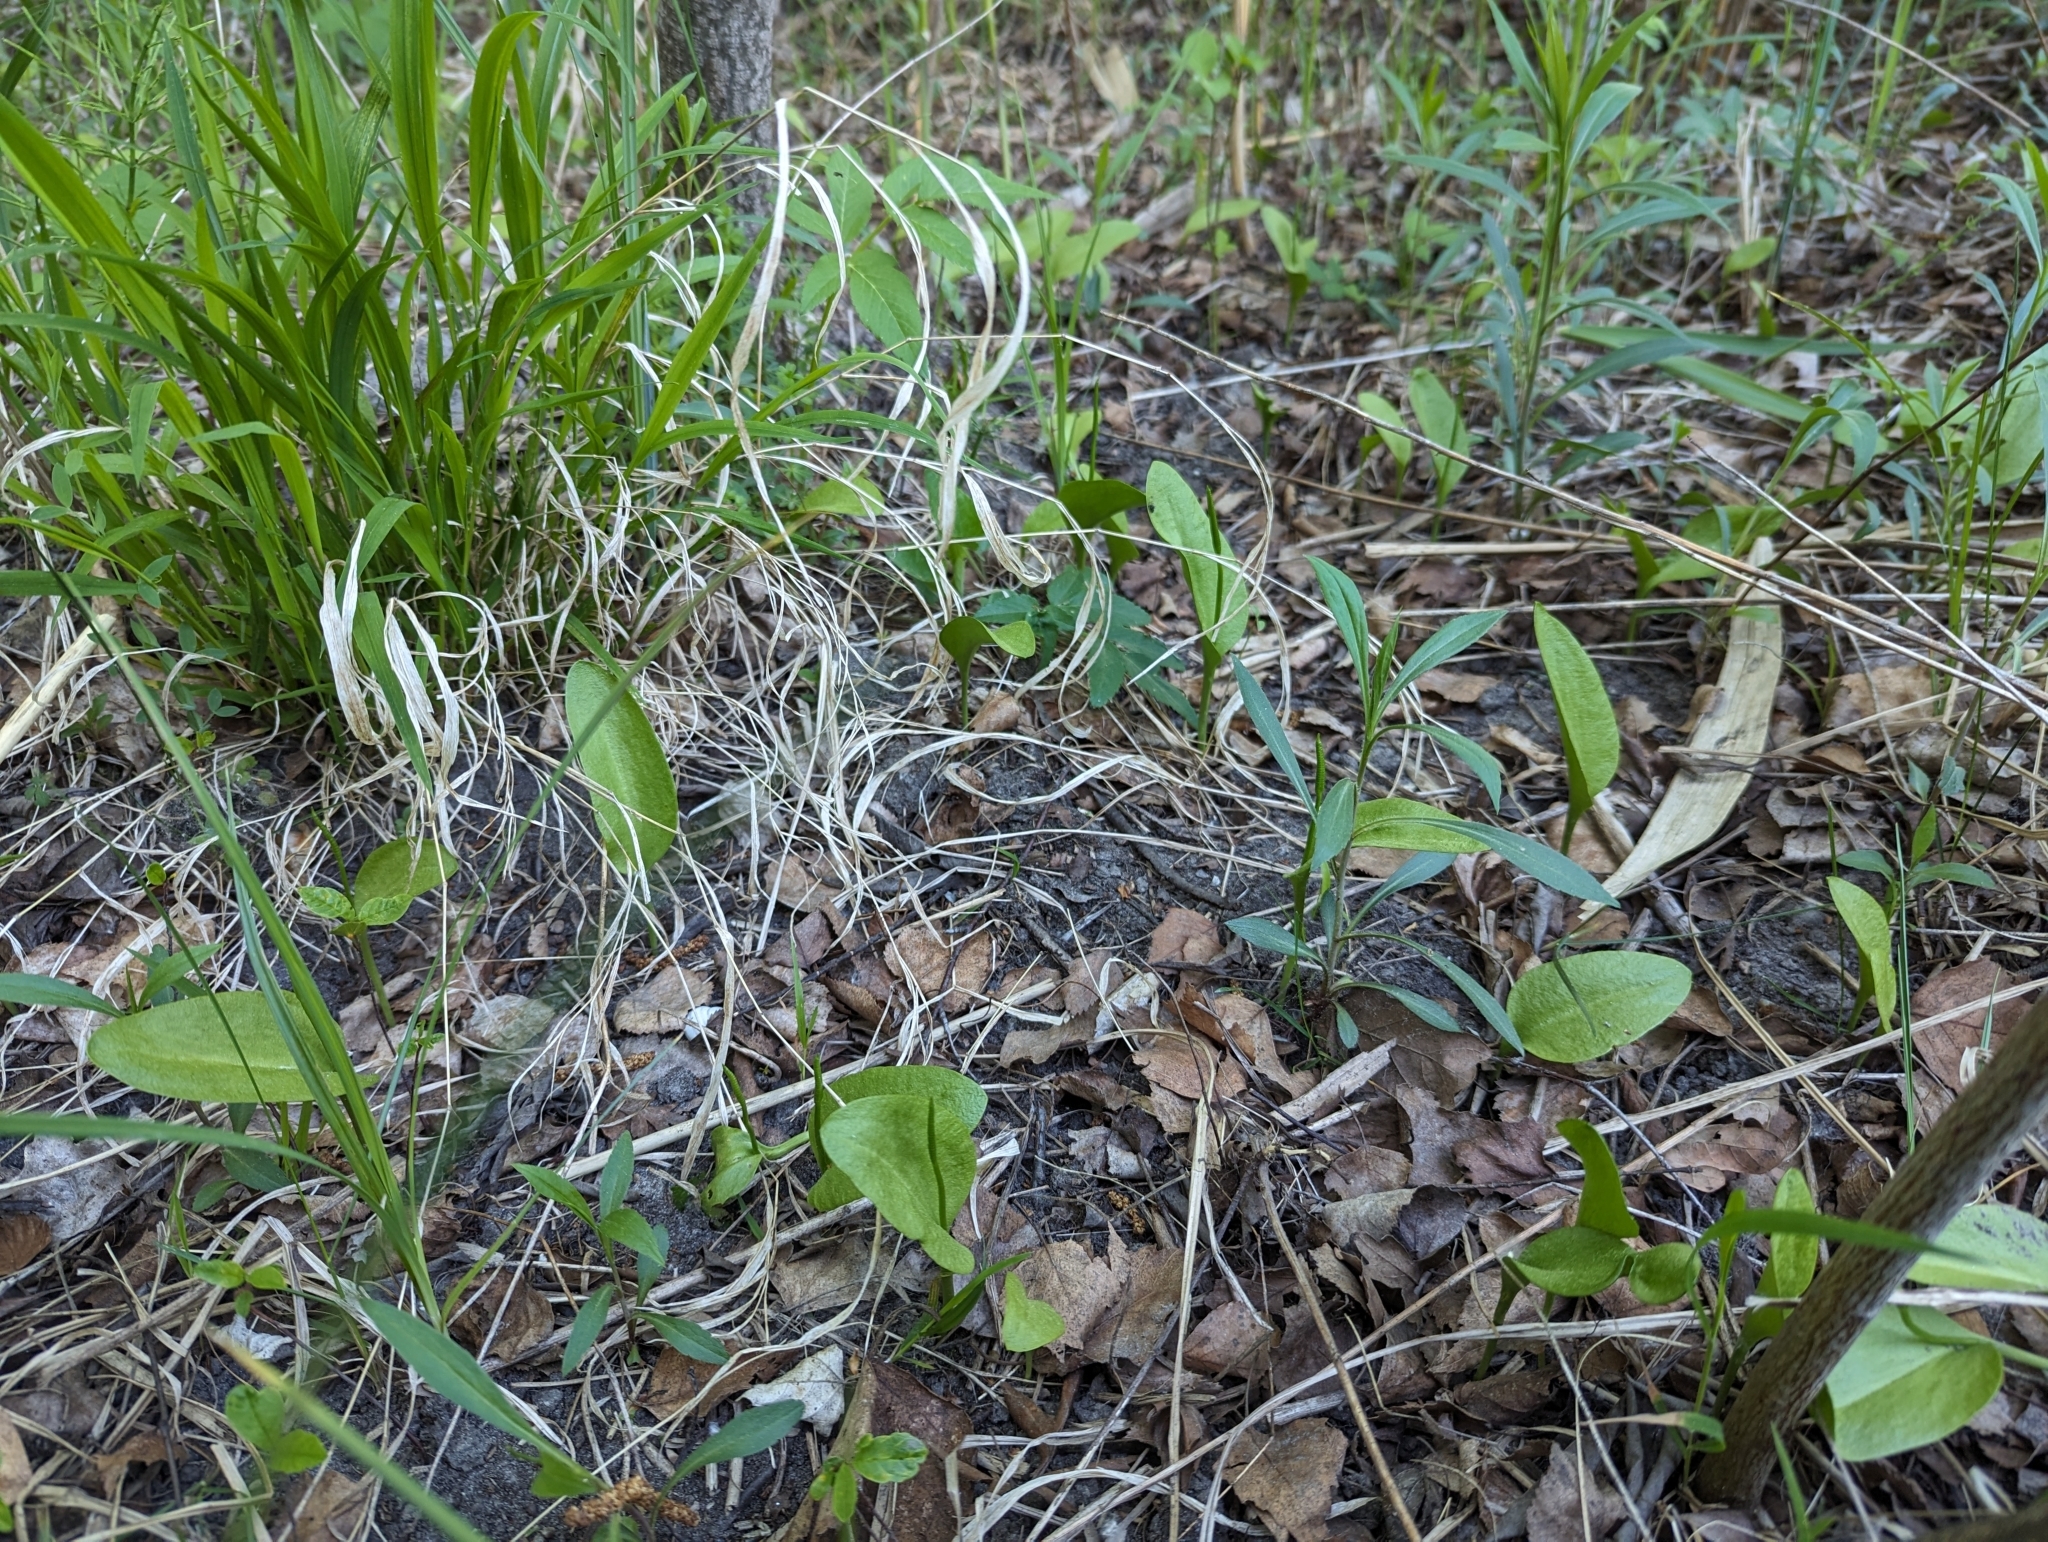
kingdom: Plantae
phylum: Tracheophyta
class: Polypodiopsida
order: Ophioglossales
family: Ophioglossaceae
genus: Ophioglossum
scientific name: Ophioglossum vulgatum
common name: Adder's-tongue
